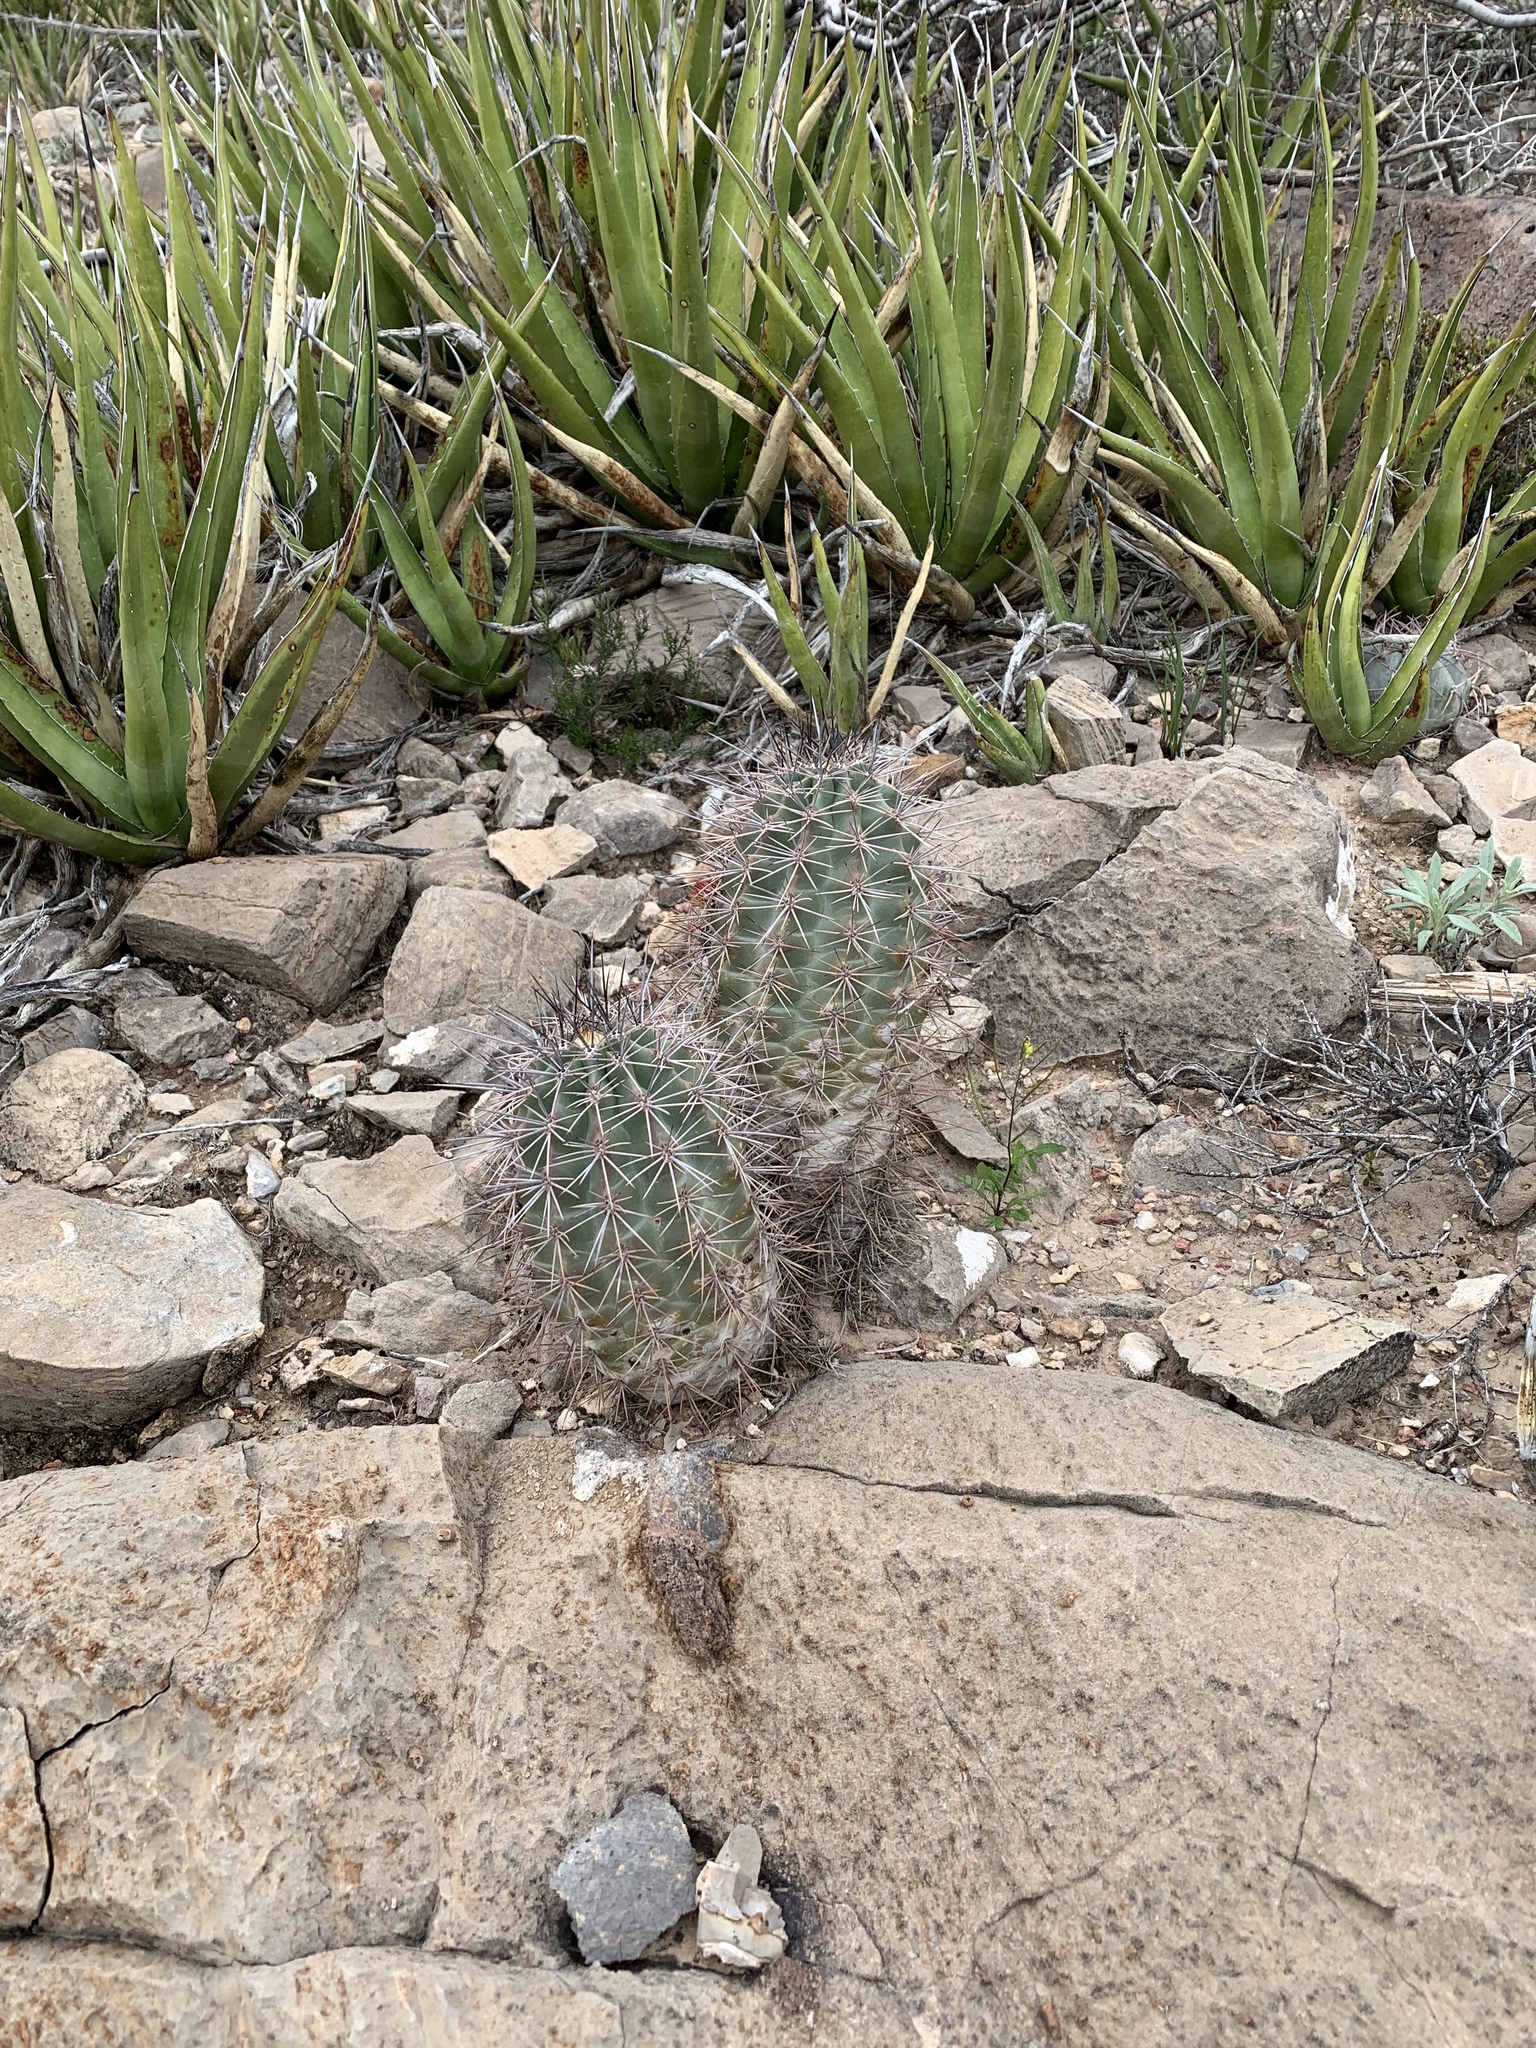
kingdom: Plantae
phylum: Tracheophyta
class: Magnoliopsida
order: Caryophyllales
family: Cactaceae
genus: Echinocereus
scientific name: Echinocereus coccineus
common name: Scarlet hedgehog cactus
